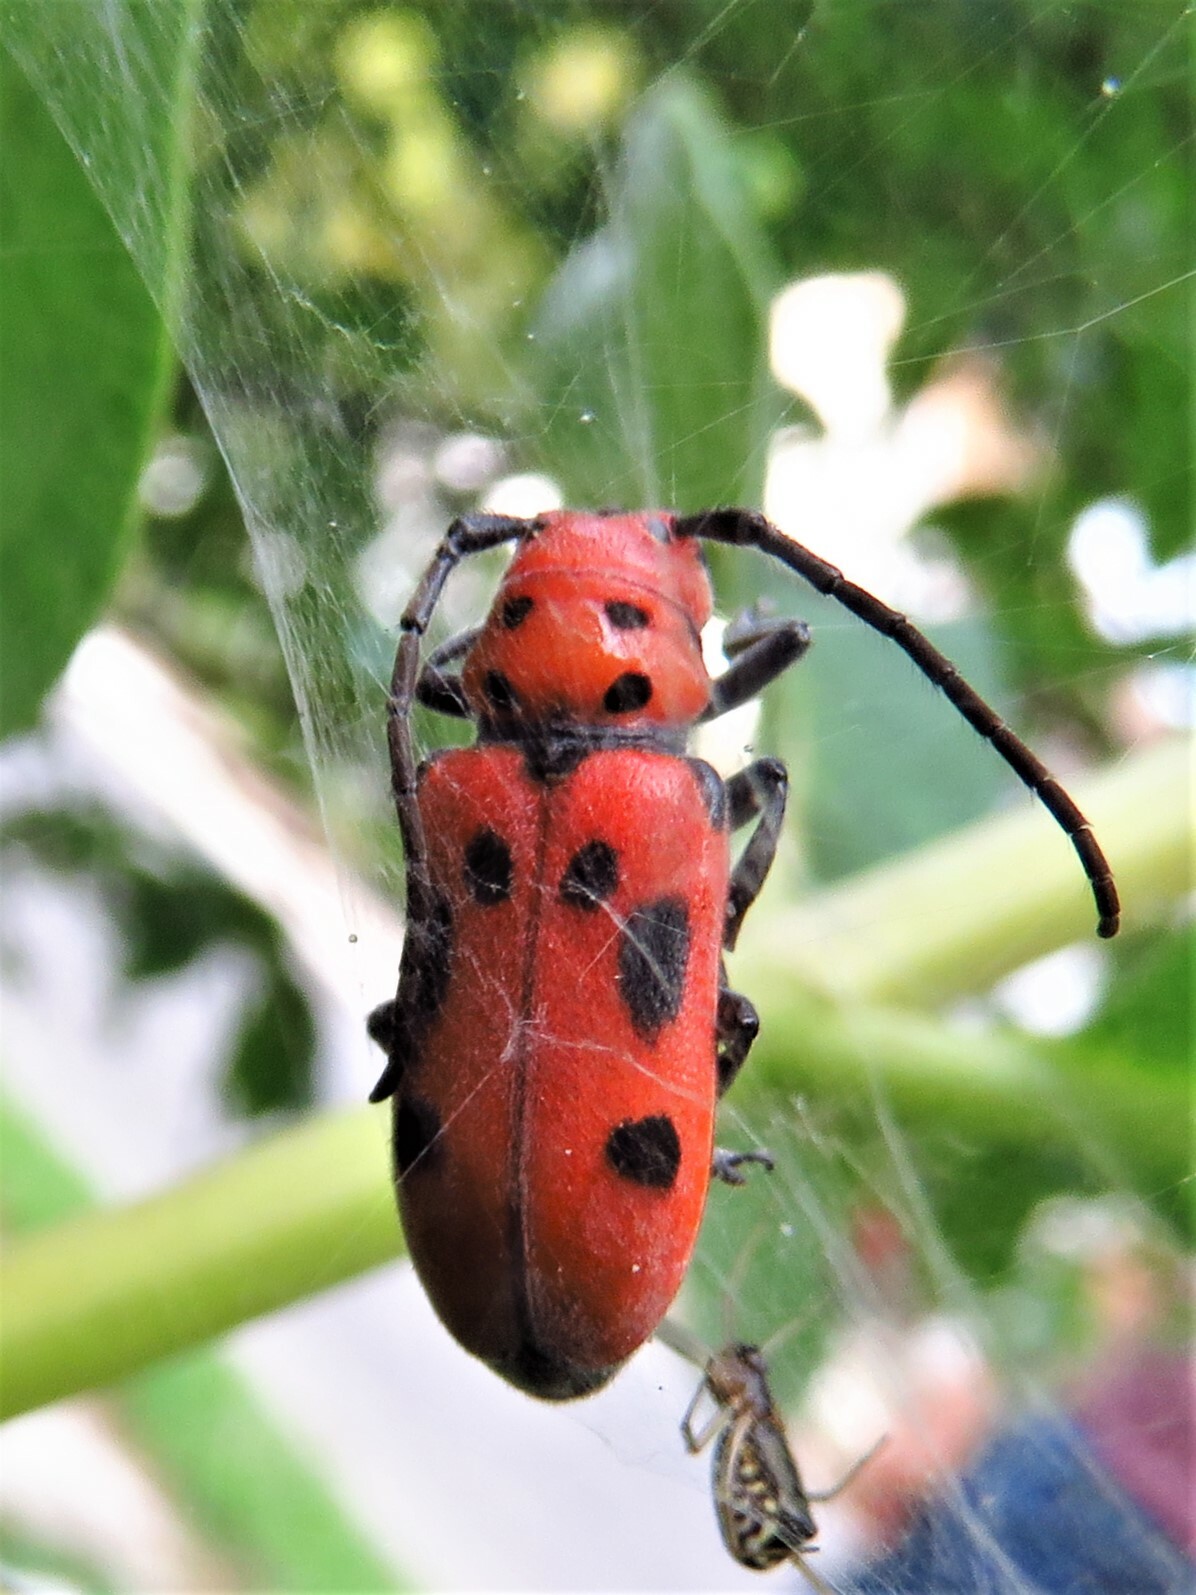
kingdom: Animalia
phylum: Arthropoda
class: Insecta
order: Coleoptera
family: Cerambycidae
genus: Tetraopes
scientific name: Tetraopes tetrophthalmus
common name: Red milkweed beetle
